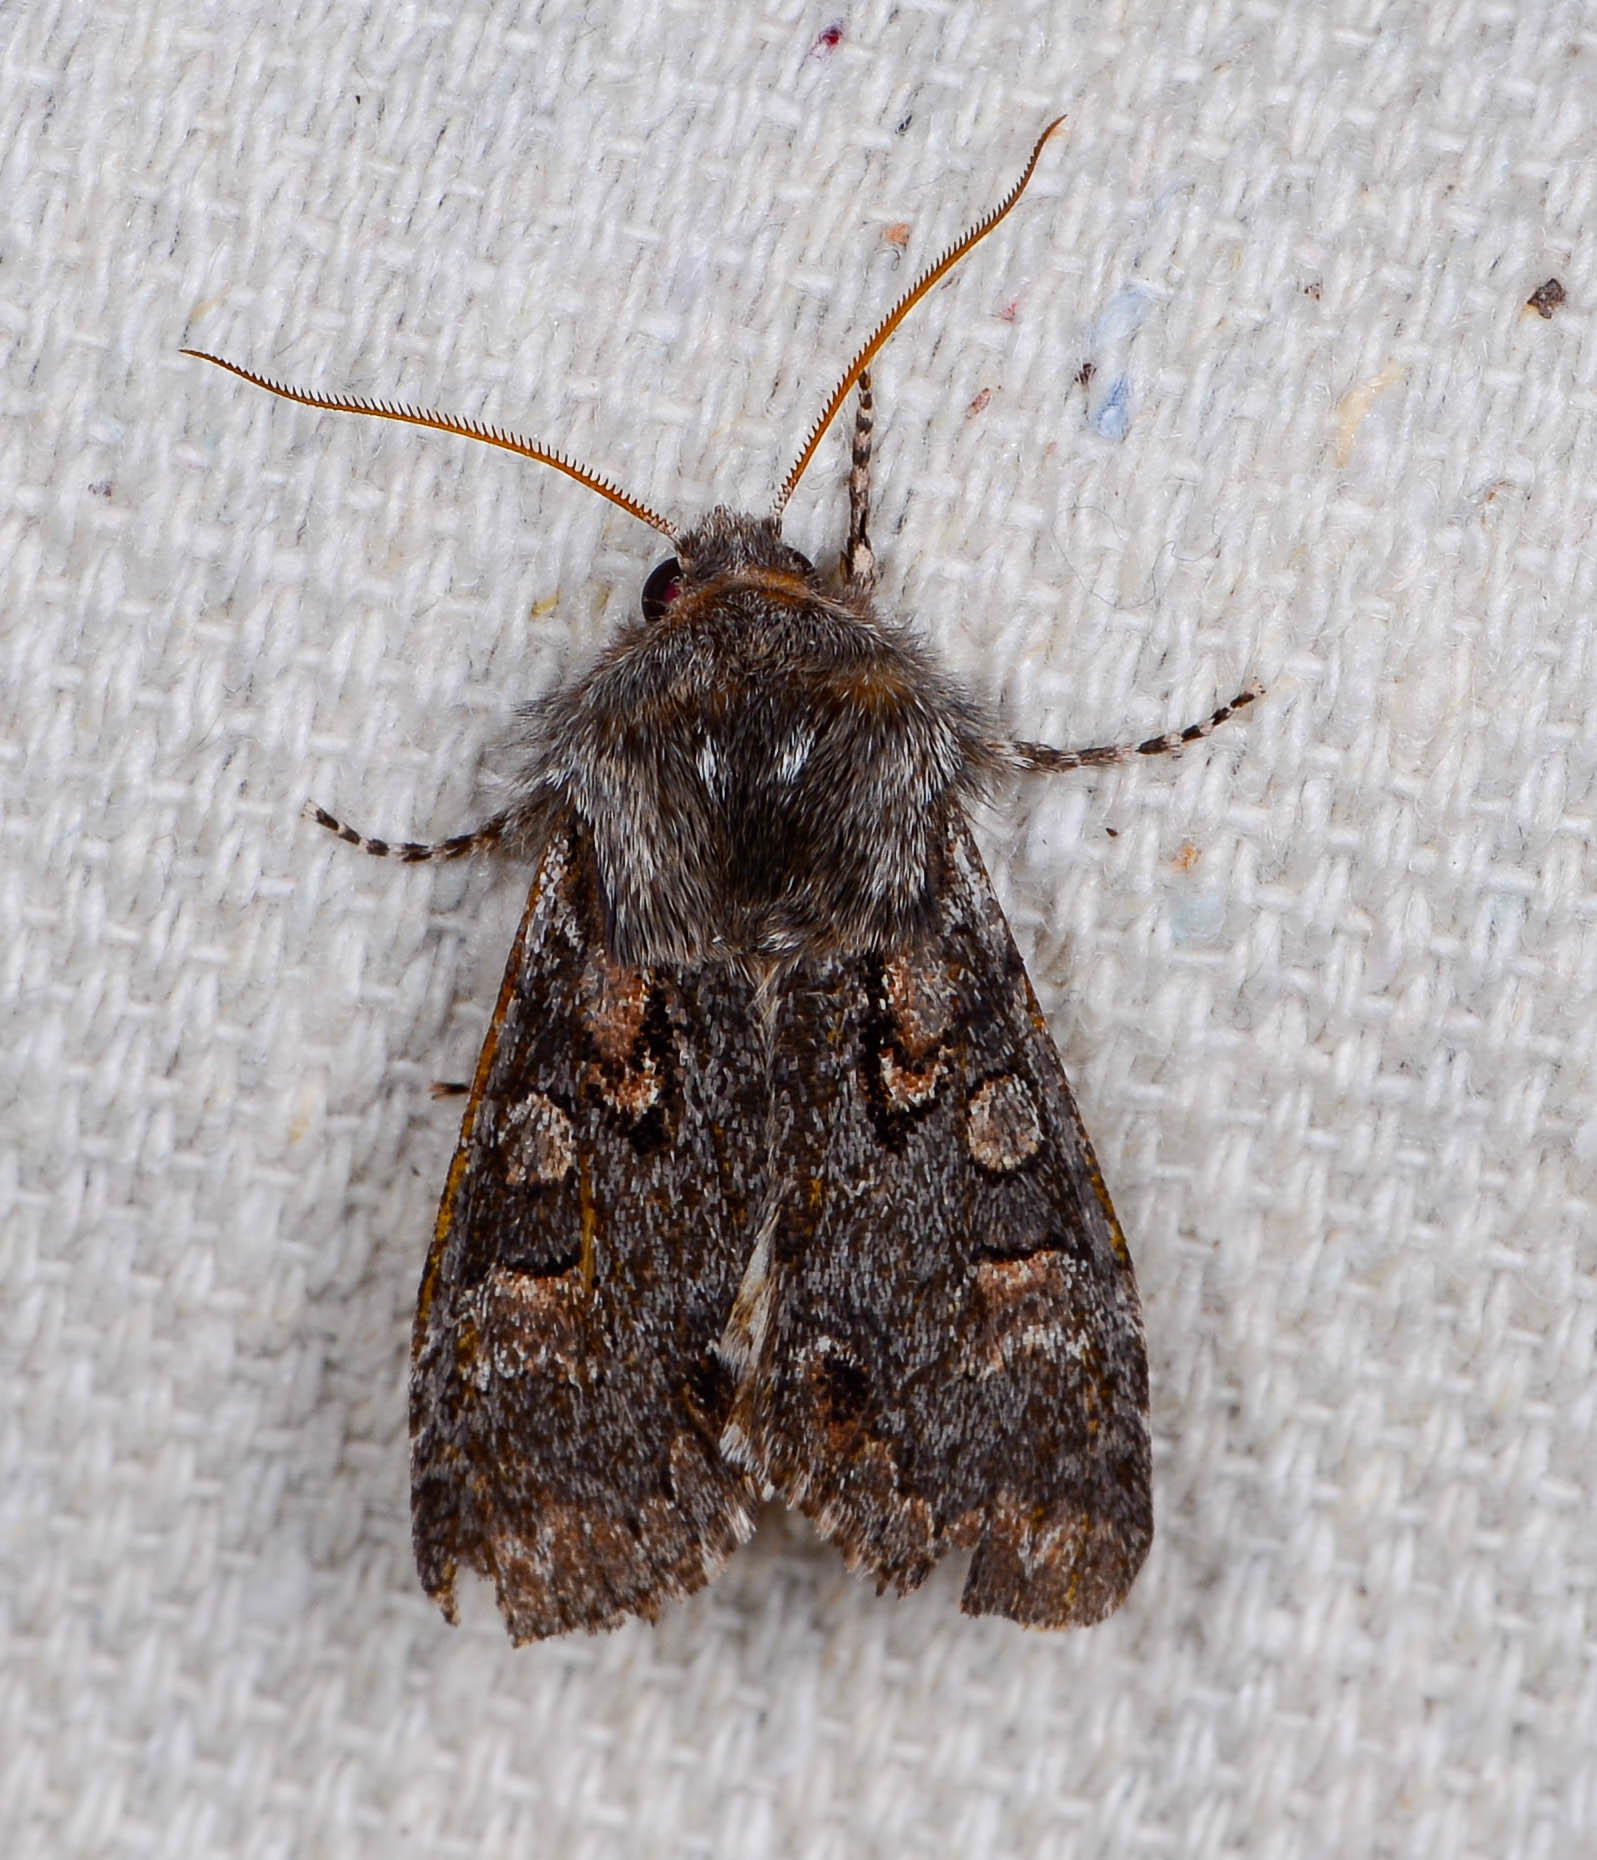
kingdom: Animalia
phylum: Arthropoda
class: Insecta
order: Lepidoptera
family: Noctuidae
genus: Psaphida
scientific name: Psaphida electilis
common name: Chosen sallow
